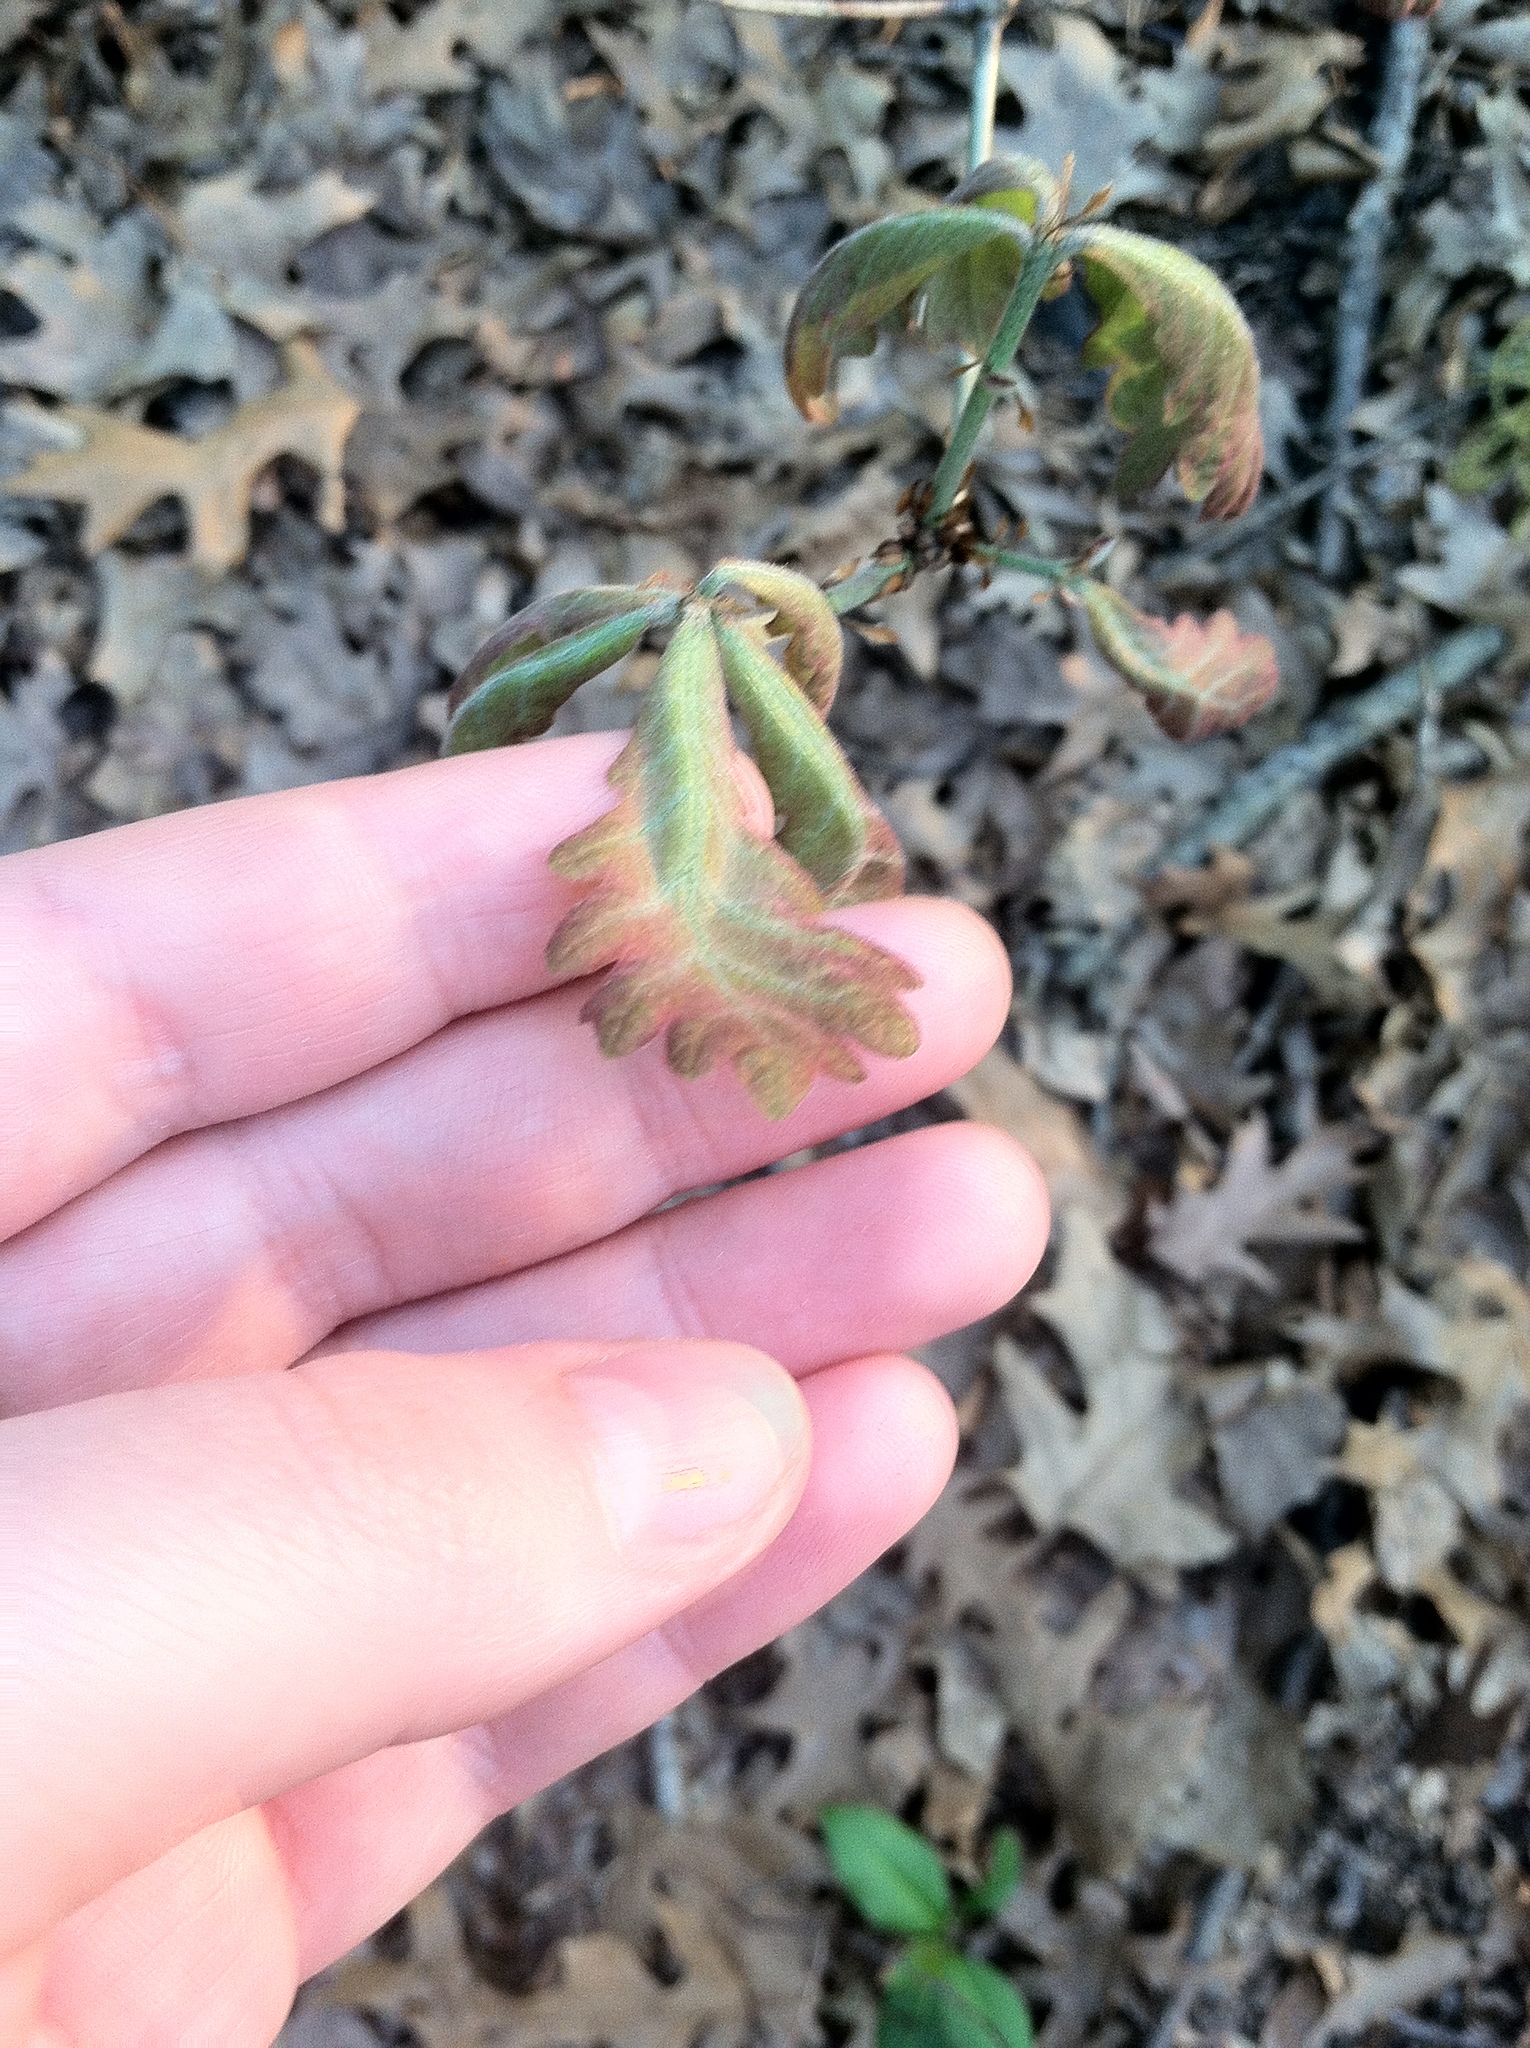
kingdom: Plantae
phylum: Tracheophyta
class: Magnoliopsida
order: Fagales
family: Fagaceae
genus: Quercus
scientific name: Quercus alba
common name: White oak
